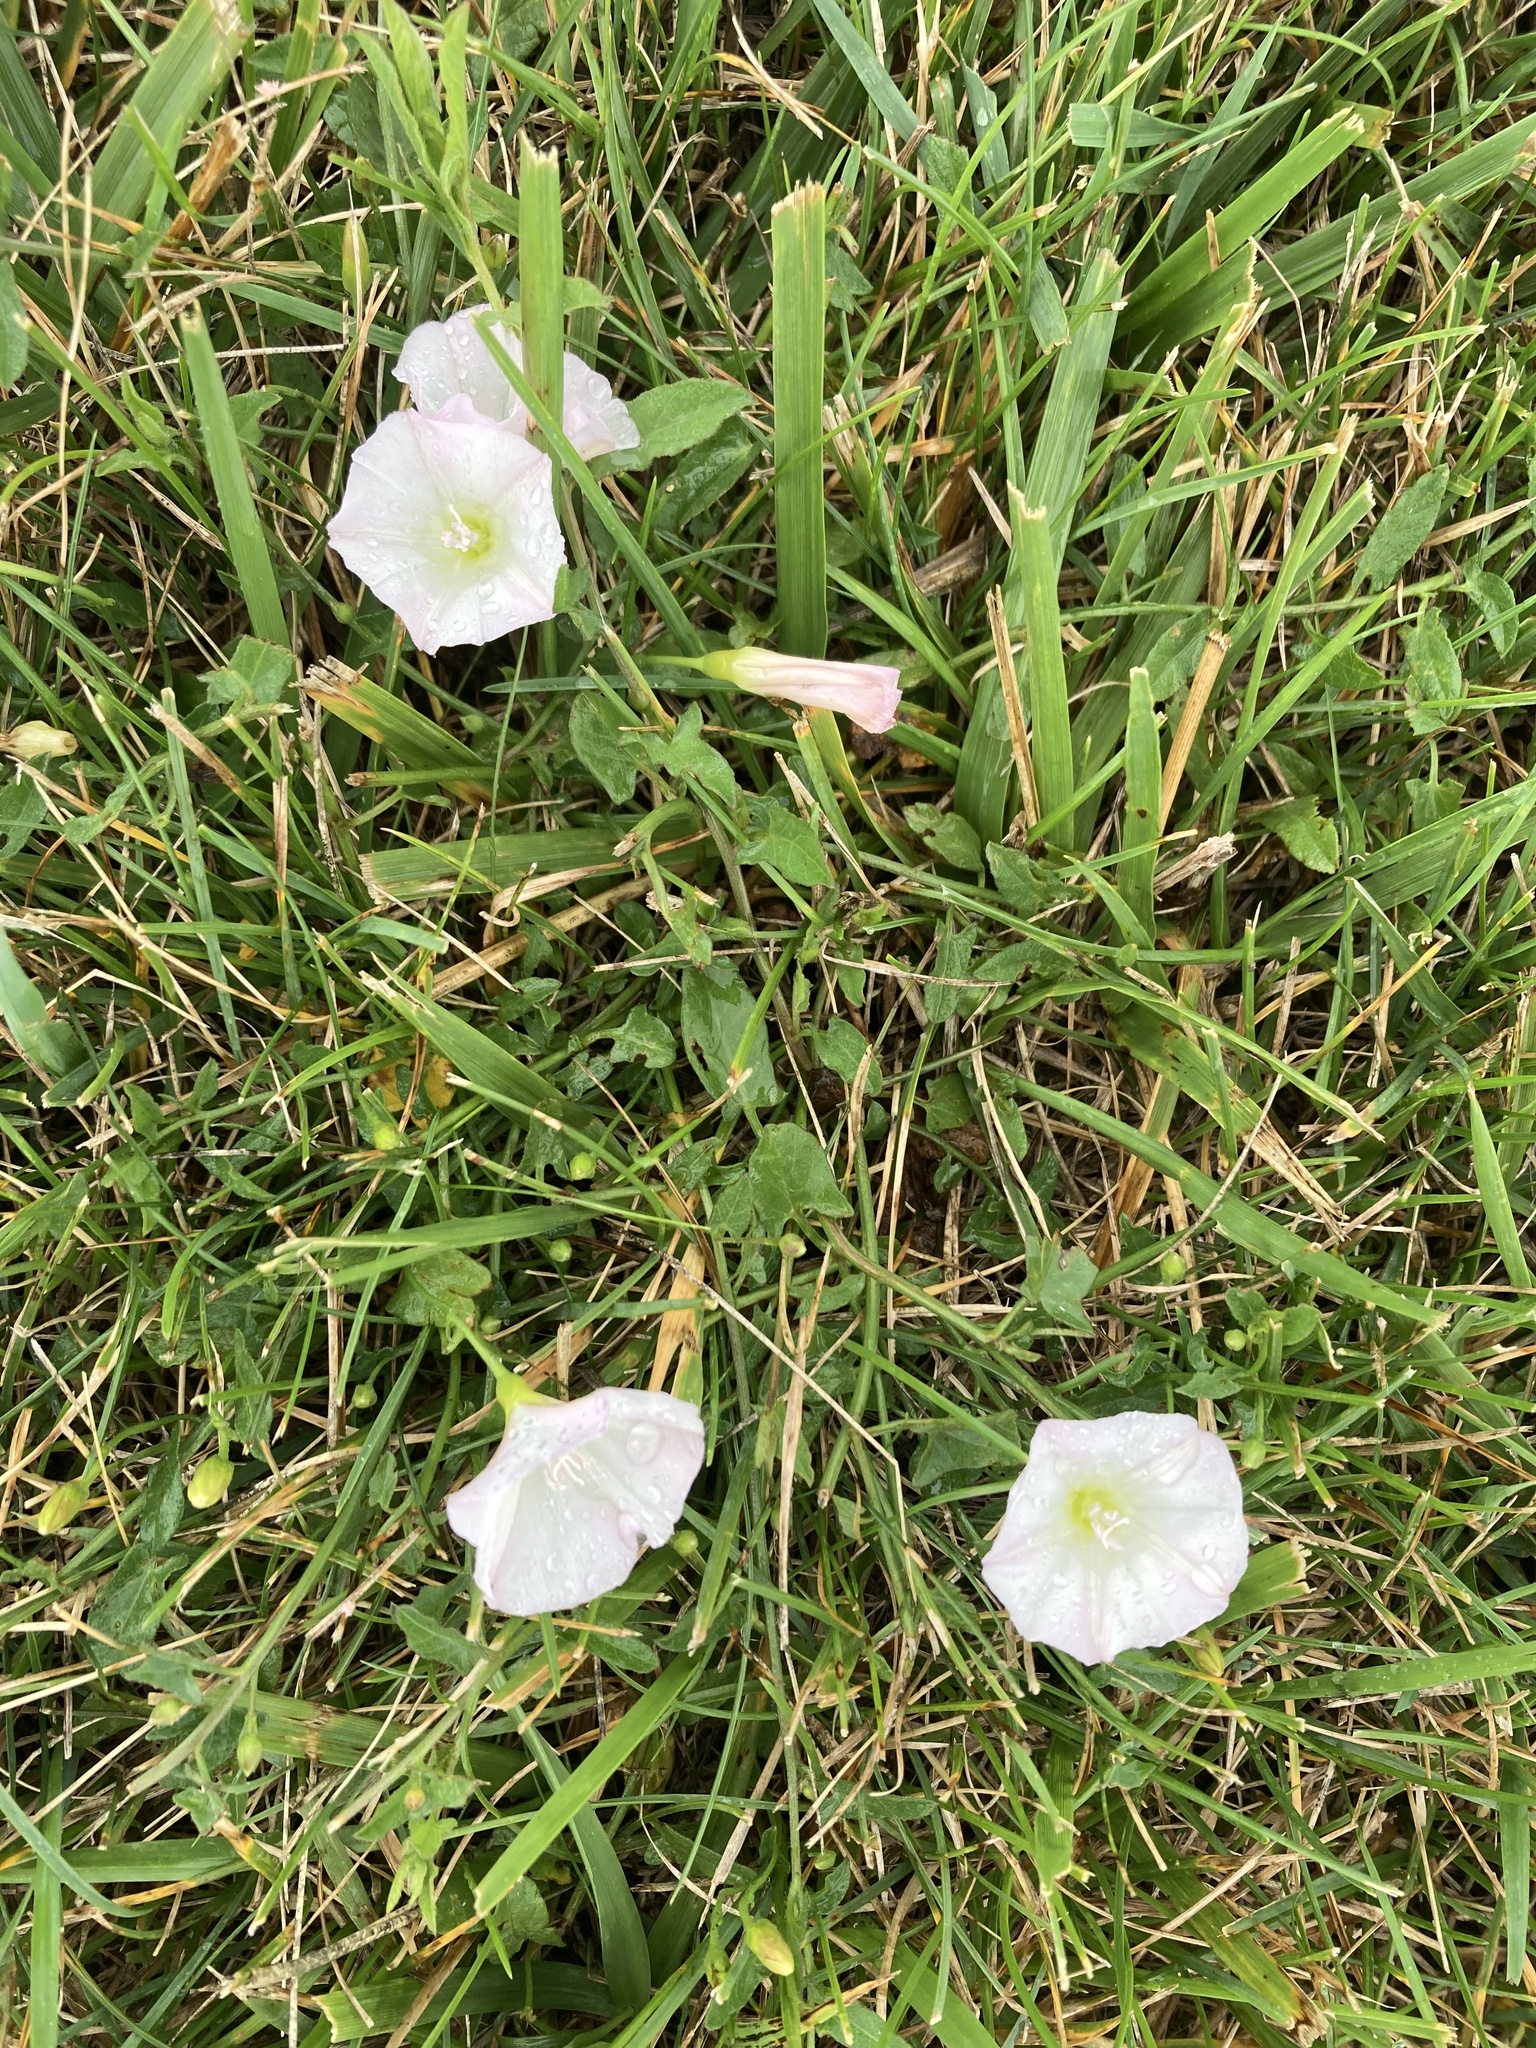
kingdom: Plantae
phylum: Tracheophyta
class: Magnoliopsida
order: Solanales
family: Convolvulaceae
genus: Convolvulus
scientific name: Convolvulus arvensis
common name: Field bindweed
